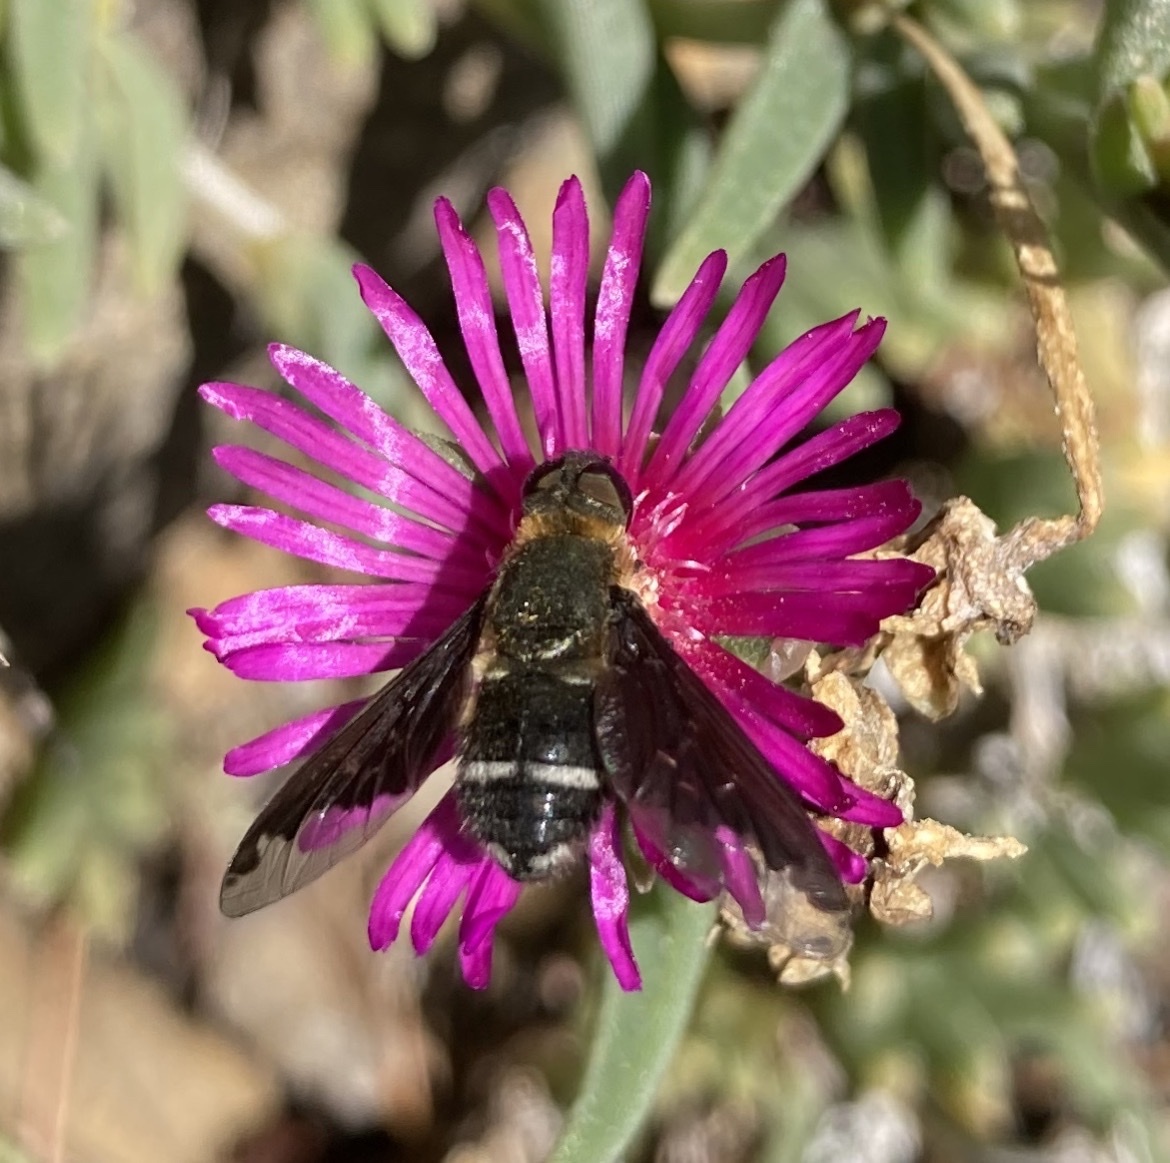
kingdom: Animalia
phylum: Arthropoda
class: Insecta
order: Diptera
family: Bombyliidae
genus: Hemipenthes
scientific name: Hemipenthes velutina
